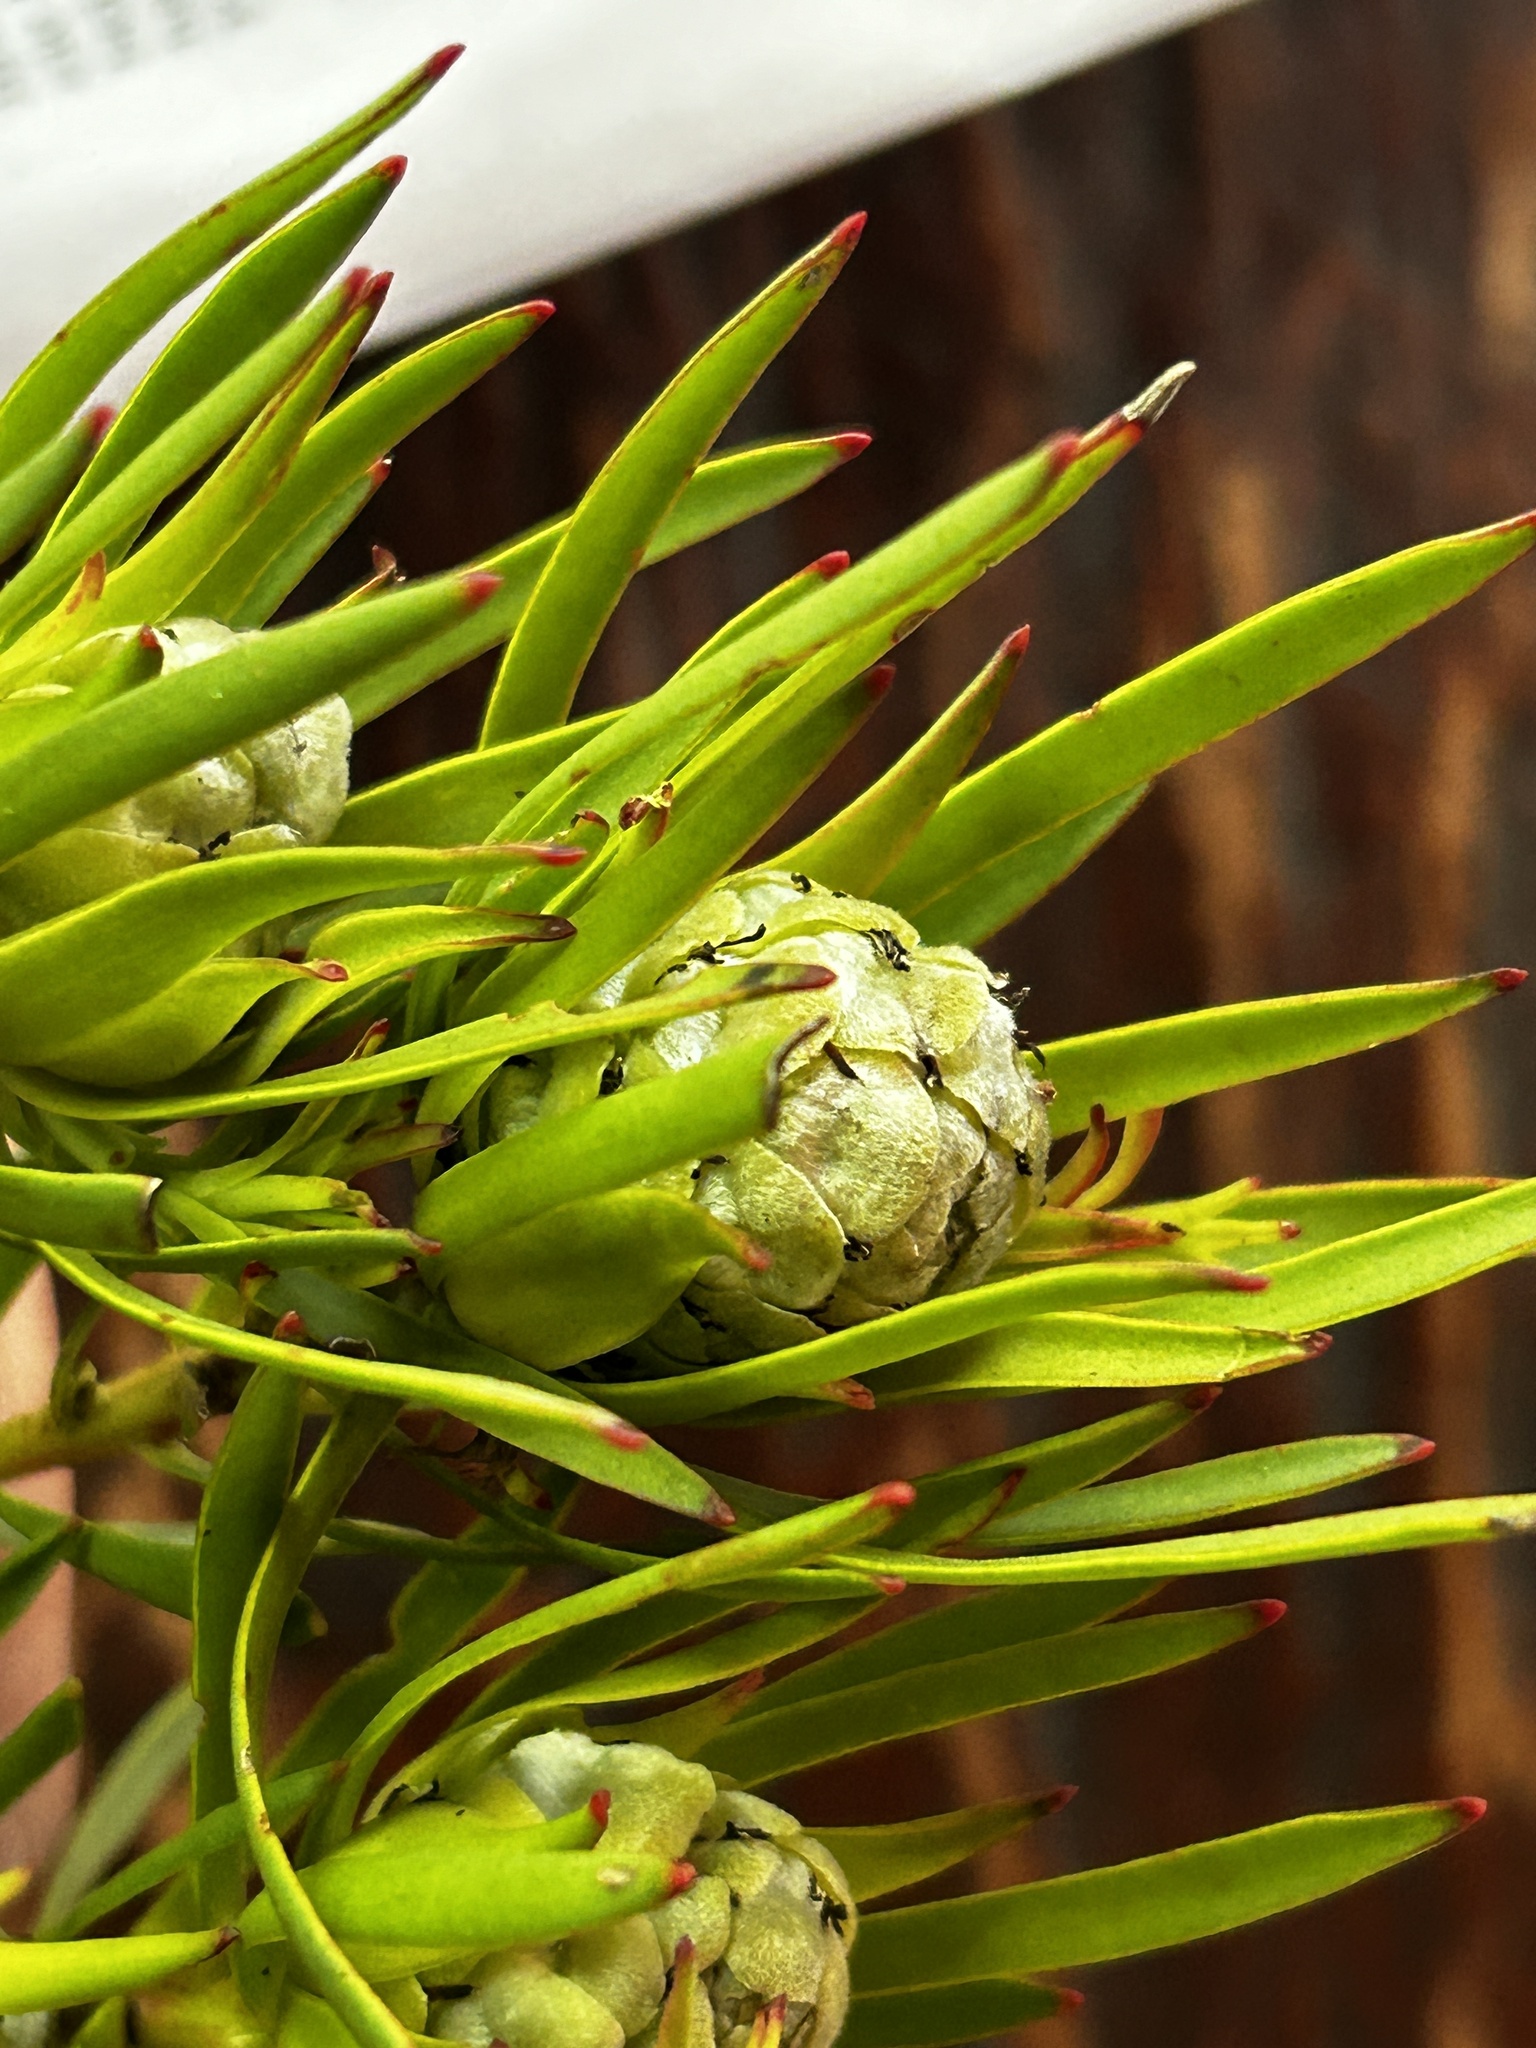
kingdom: Plantae
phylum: Tracheophyta
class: Magnoliopsida
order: Proteales
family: Proteaceae
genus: Leucadendron
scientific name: Leucadendron salignum
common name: Common sunshine conebush
